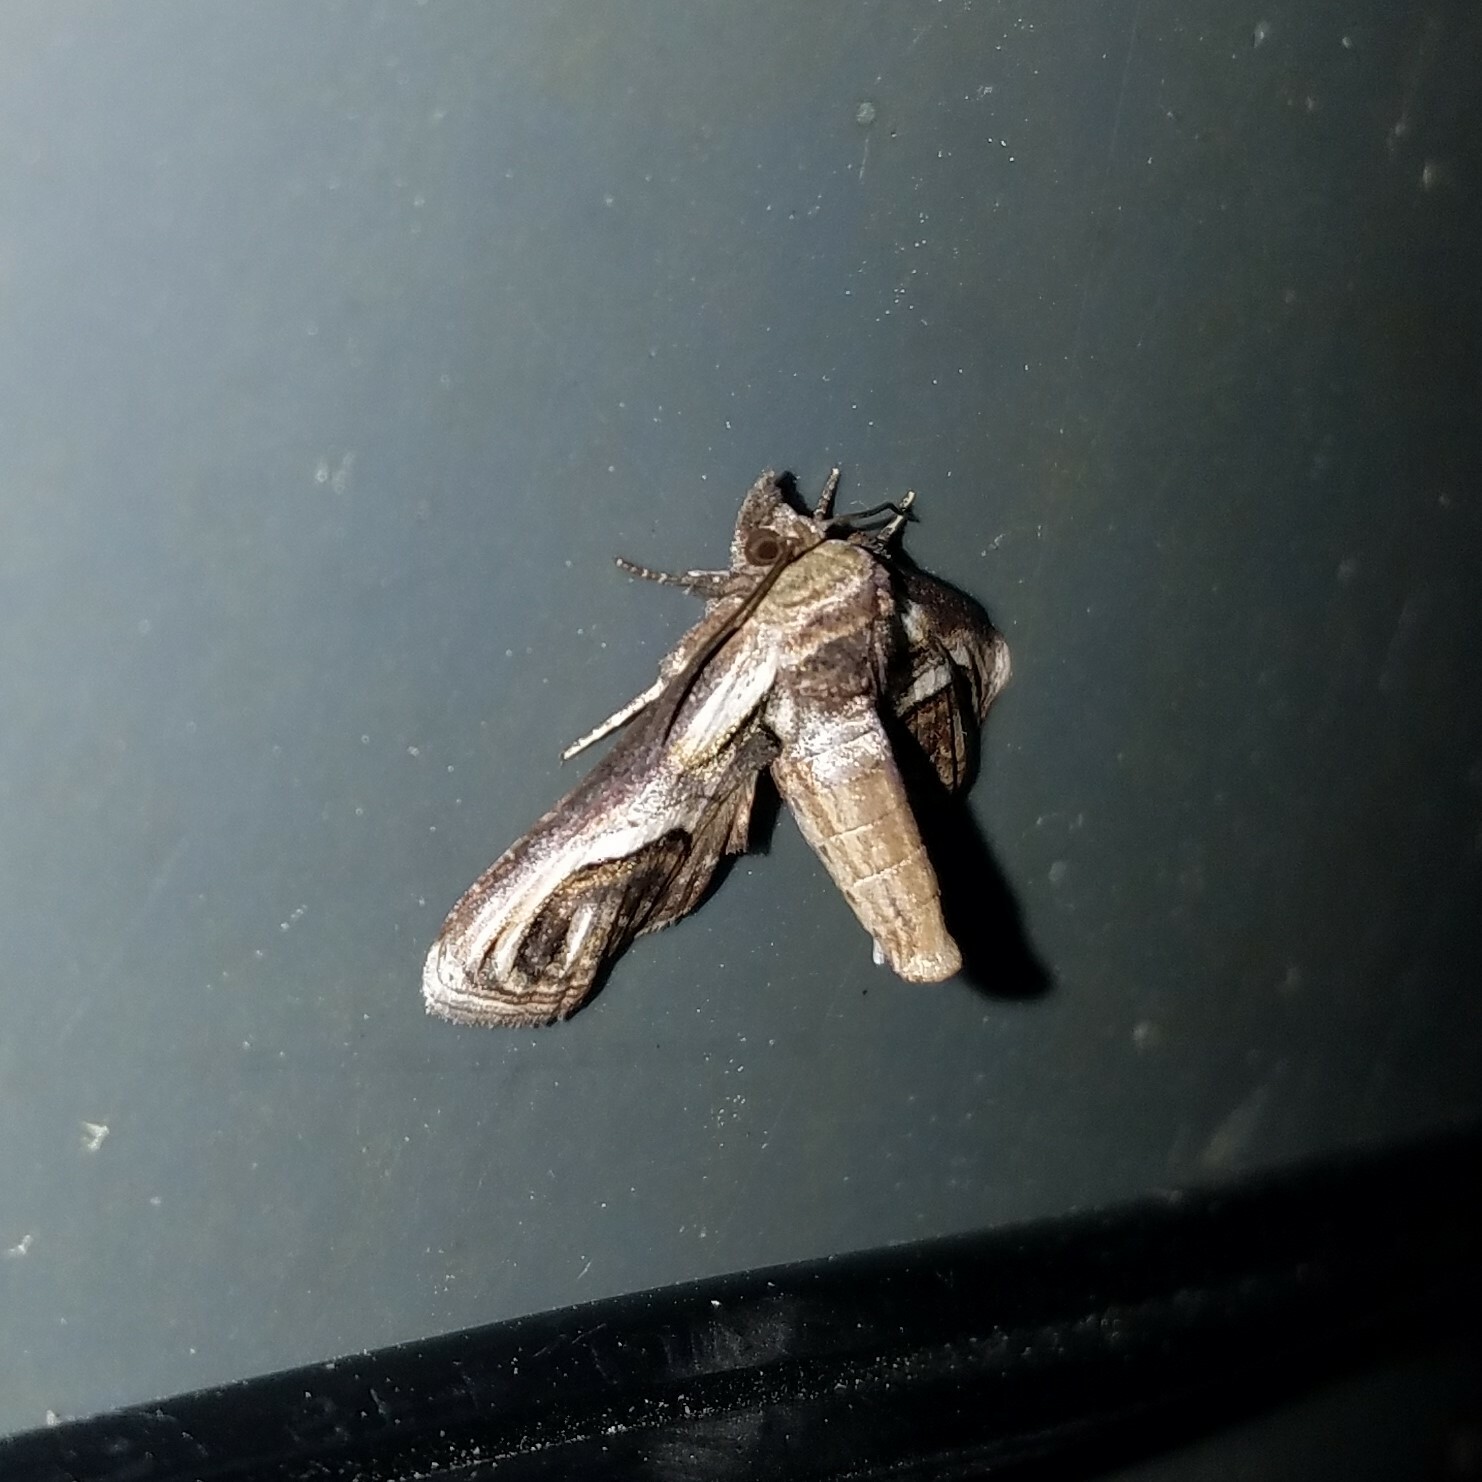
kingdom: Animalia
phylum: Arthropoda
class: Insecta
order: Lepidoptera
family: Euteliidae
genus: Paectes
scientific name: Paectes oculatrix
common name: Eyed paectes moth
